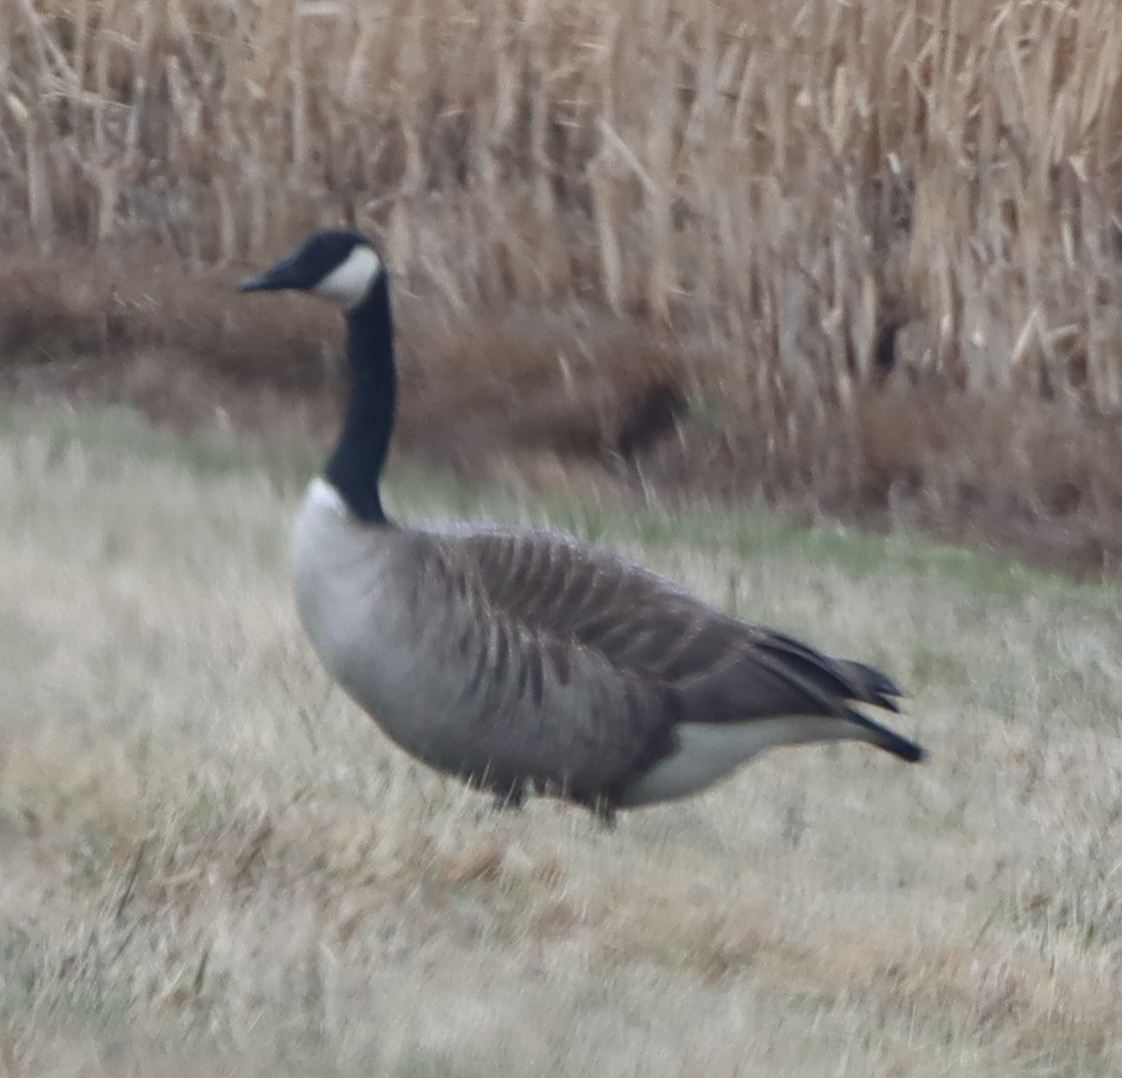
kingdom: Animalia
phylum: Chordata
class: Aves
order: Anseriformes
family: Anatidae
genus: Branta
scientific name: Branta canadensis
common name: Canada goose
